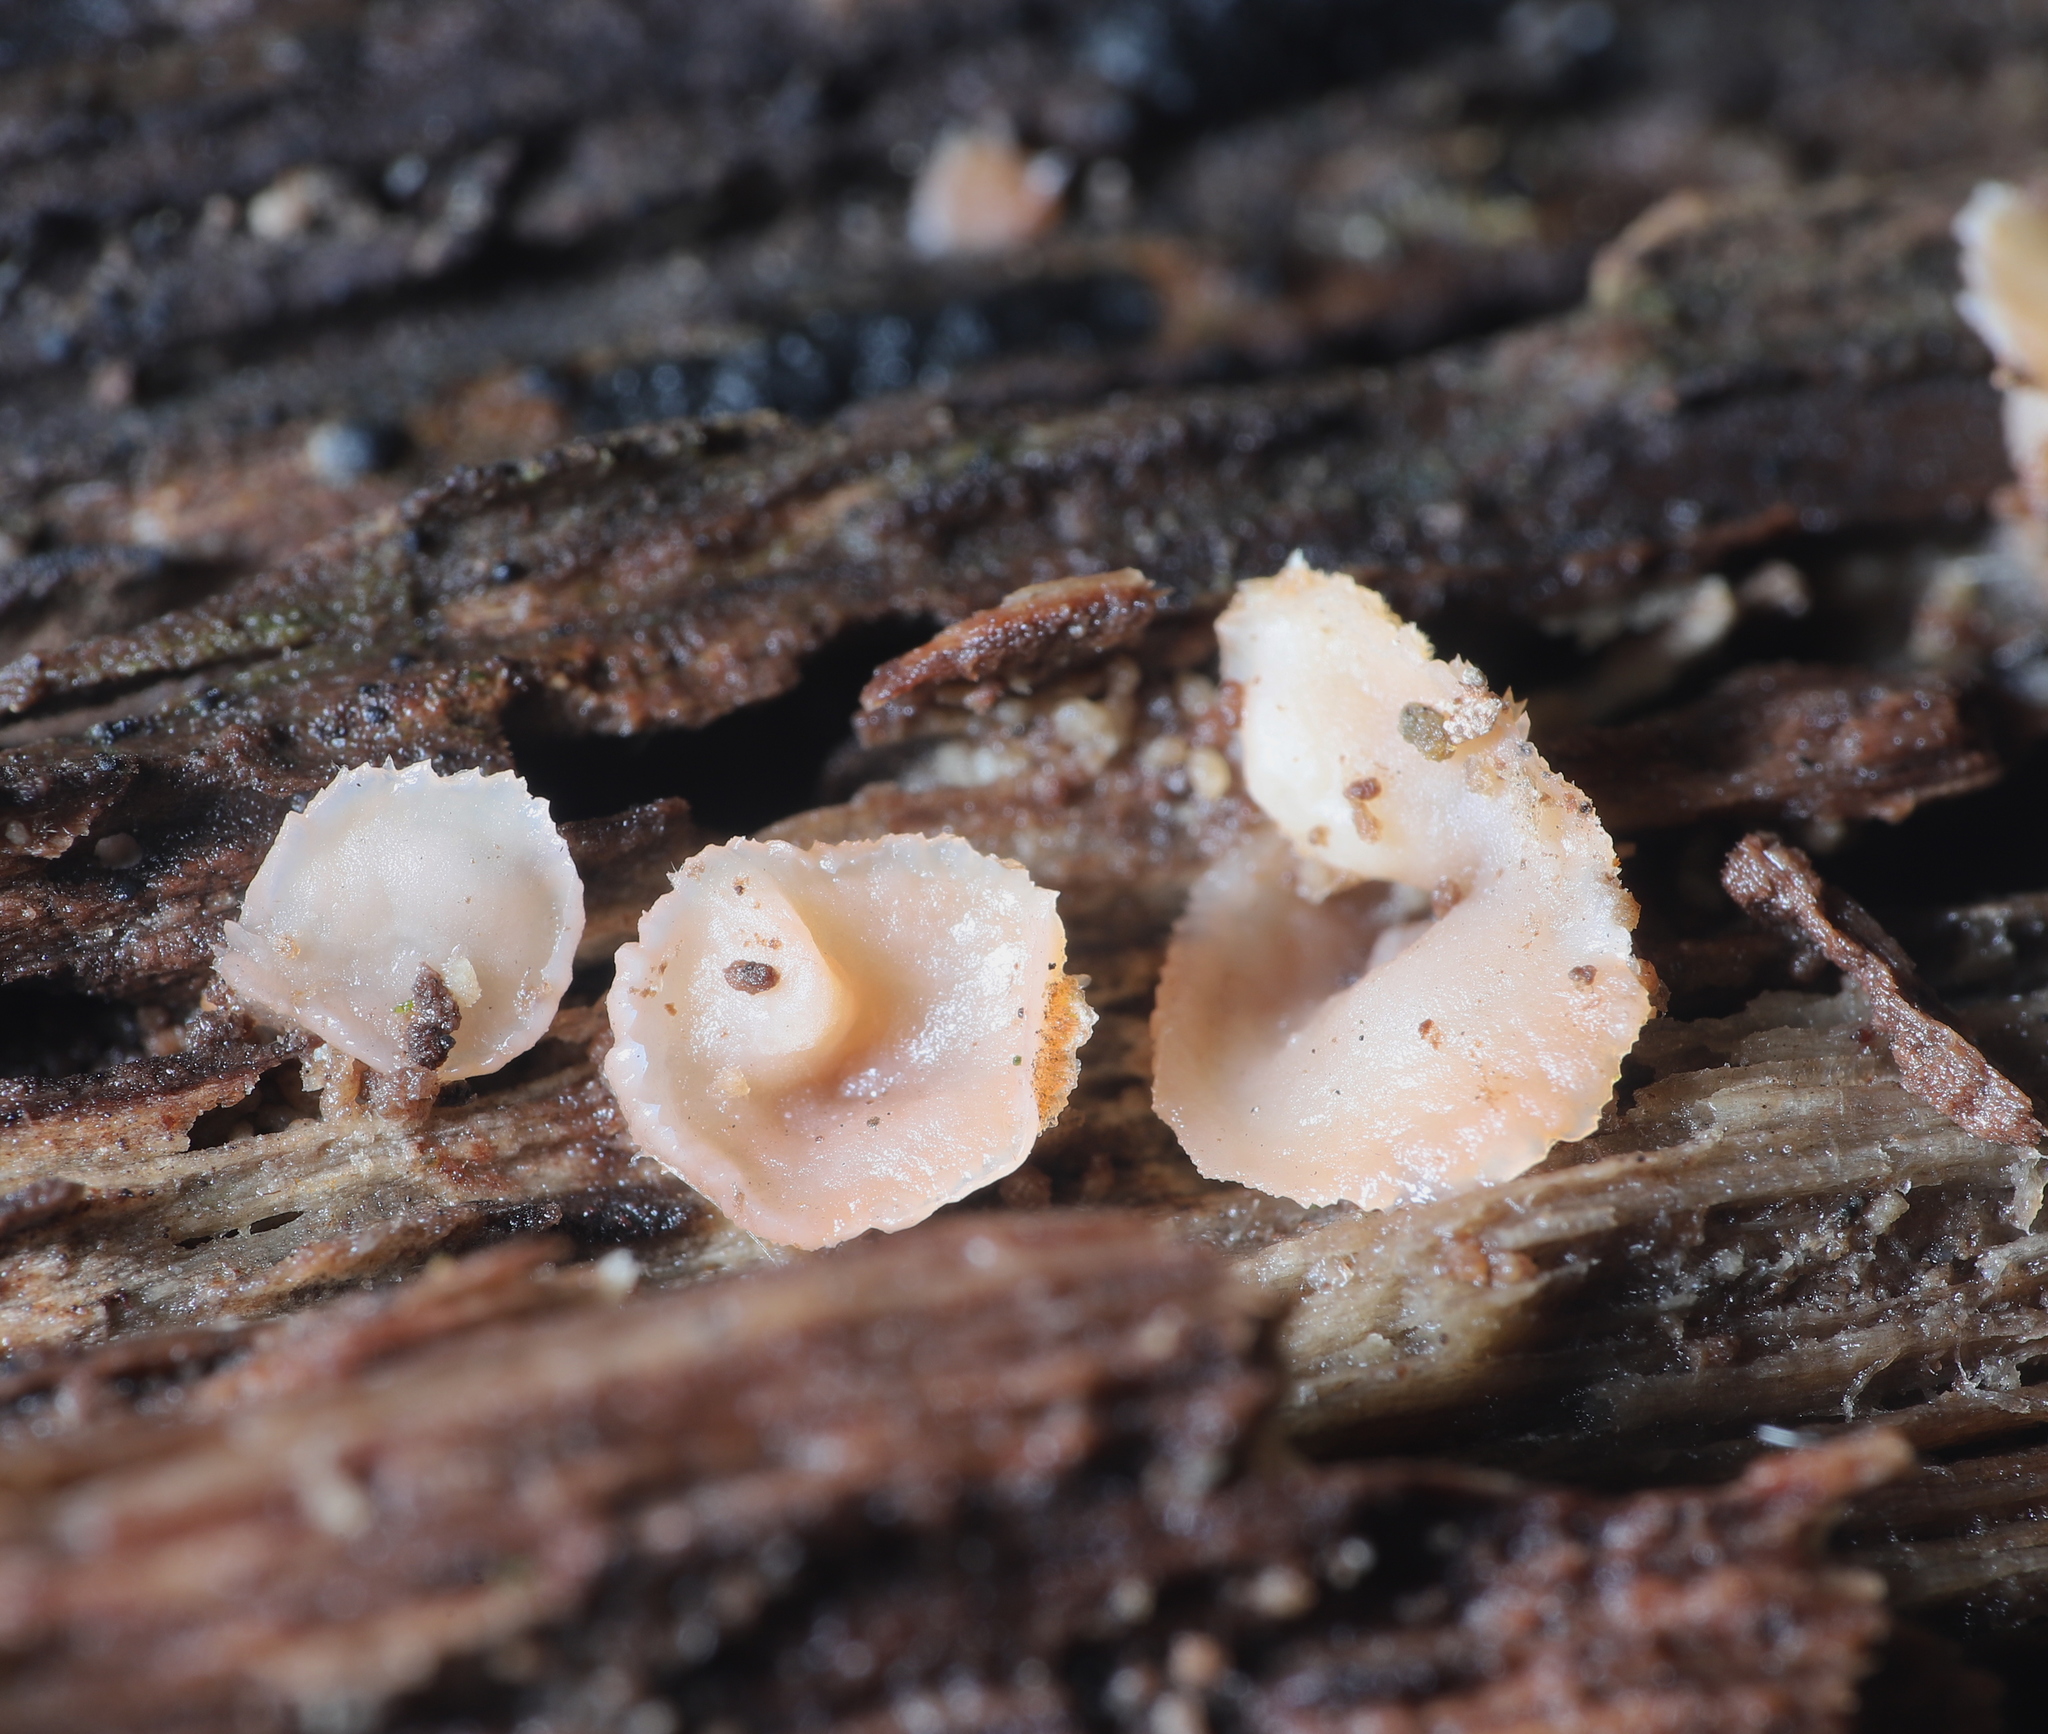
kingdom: Fungi
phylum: Basidiomycota
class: Agaricomycetes
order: Polyporales
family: Meruliaceae
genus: Phlebia
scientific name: Phlebia tremellosa
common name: Jelly rot
